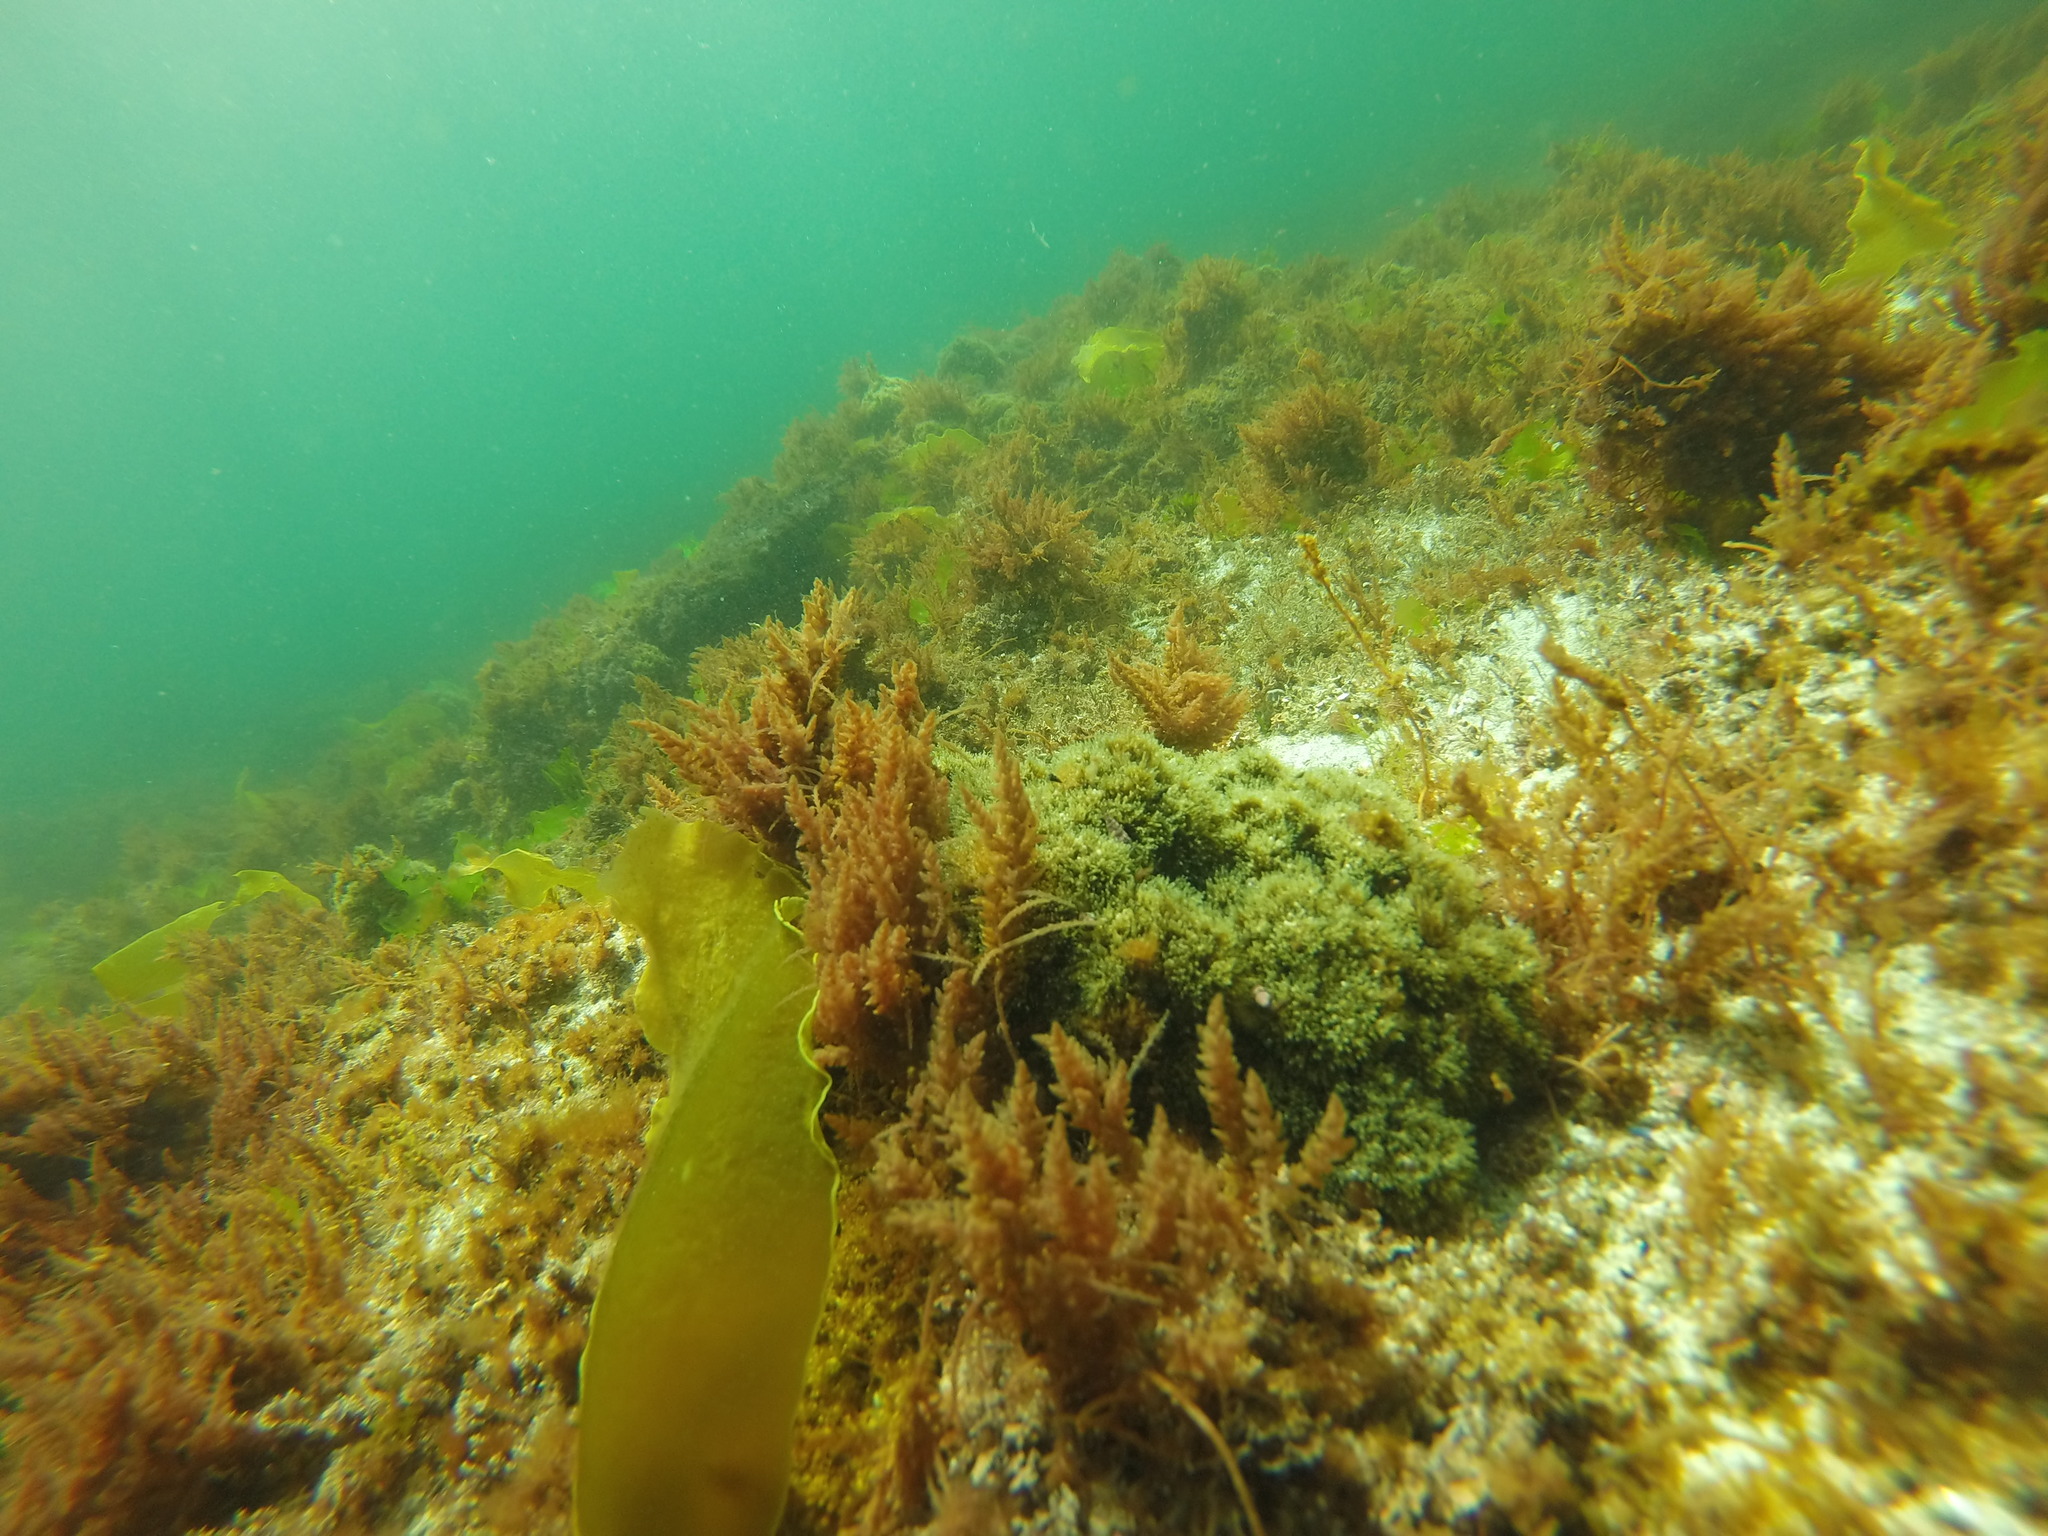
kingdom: Plantae
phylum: Rhodophyta
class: Florideophyceae
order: Bonnemaisoniales
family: Bonnemaisoniaceae
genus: Asparagopsis
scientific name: Asparagopsis armata
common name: Harpoon weed
